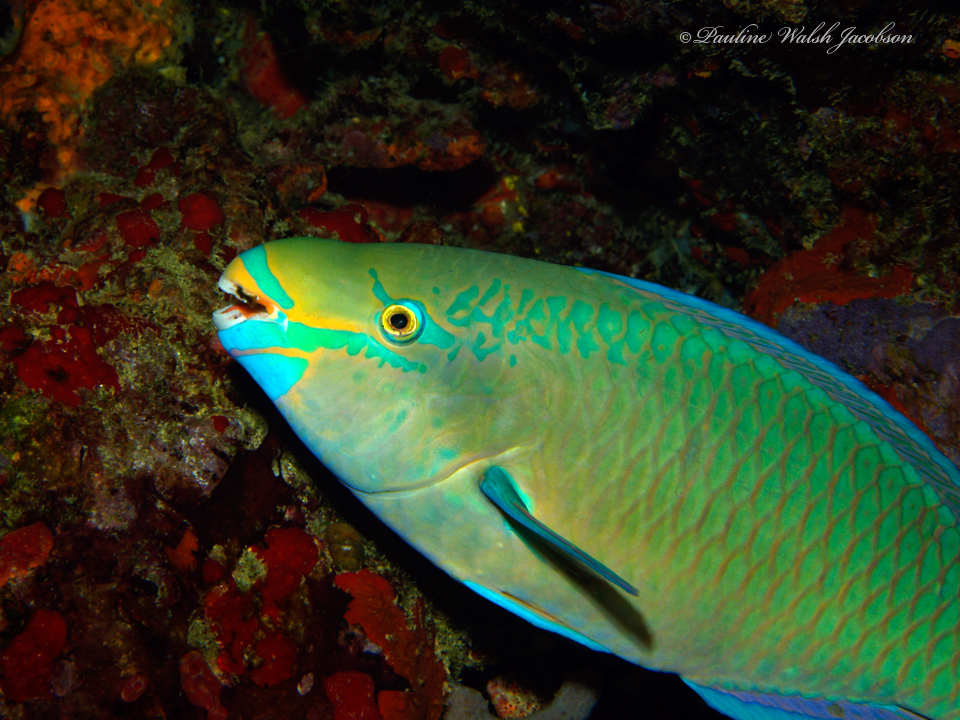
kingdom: Animalia
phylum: Chordata
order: Perciformes
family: Scaridae
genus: Scarus
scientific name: Scarus vetula
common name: Queen parrotfish
